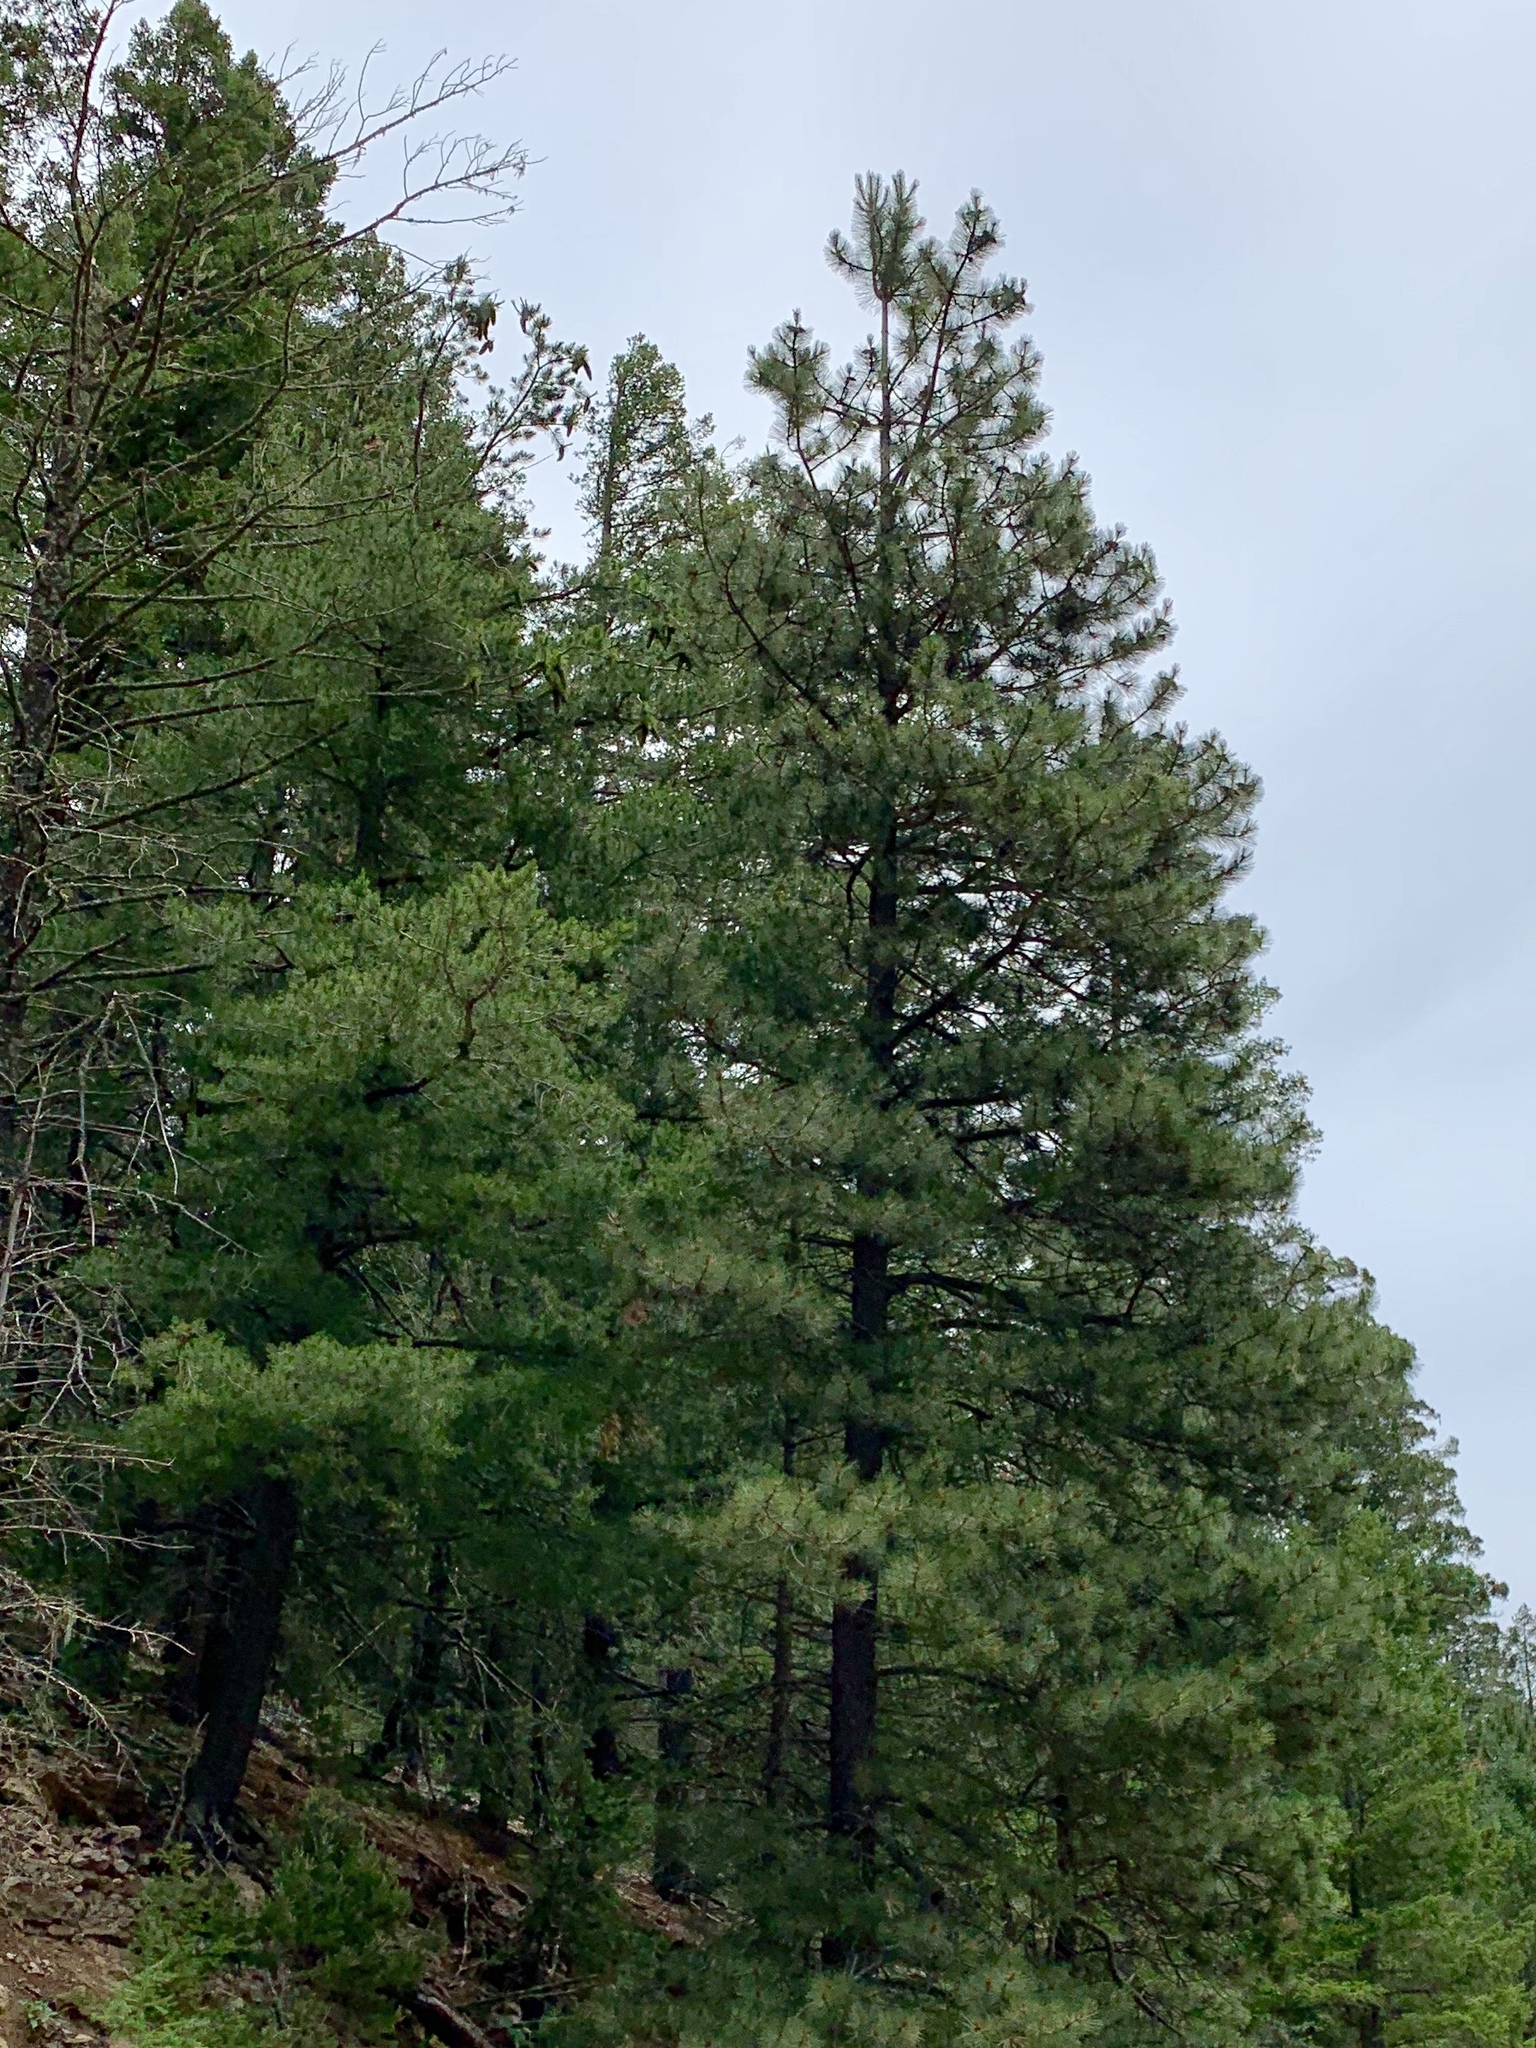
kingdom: Plantae
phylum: Tracheophyta
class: Pinopsida
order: Pinales
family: Pinaceae
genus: Pinus
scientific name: Pinus ponderosa
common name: Western yellow-pine
